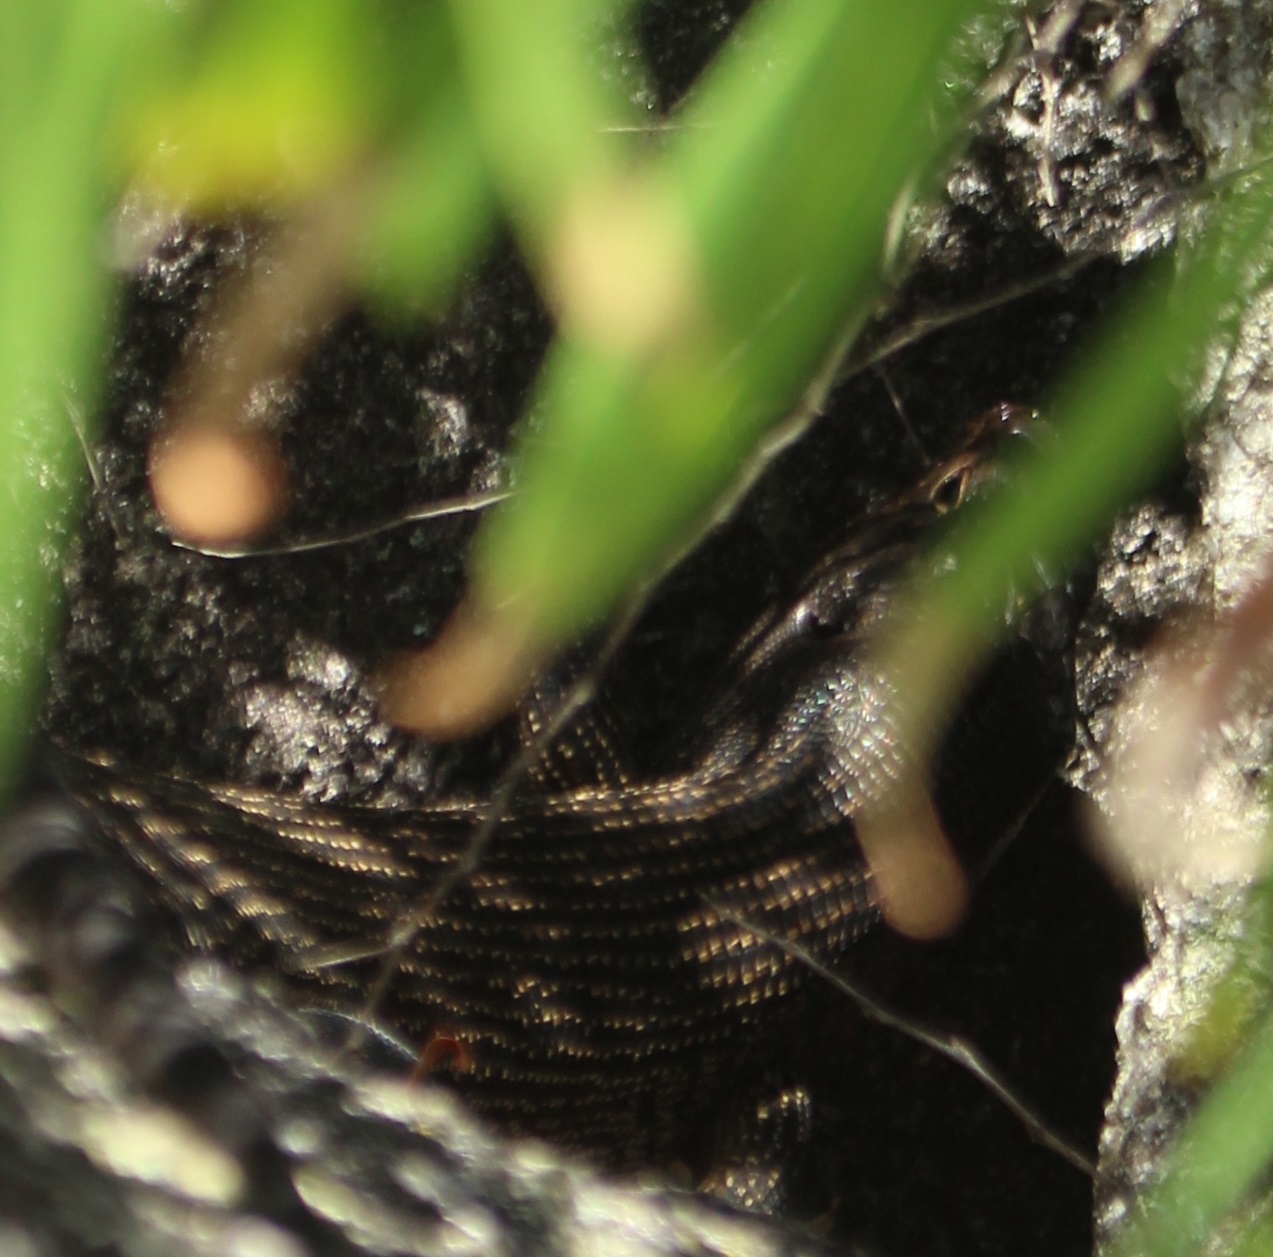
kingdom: Animalia
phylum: Chordata
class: Squamata
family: Scincidae
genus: Egernia
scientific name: Egernia kingii
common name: King's skink
